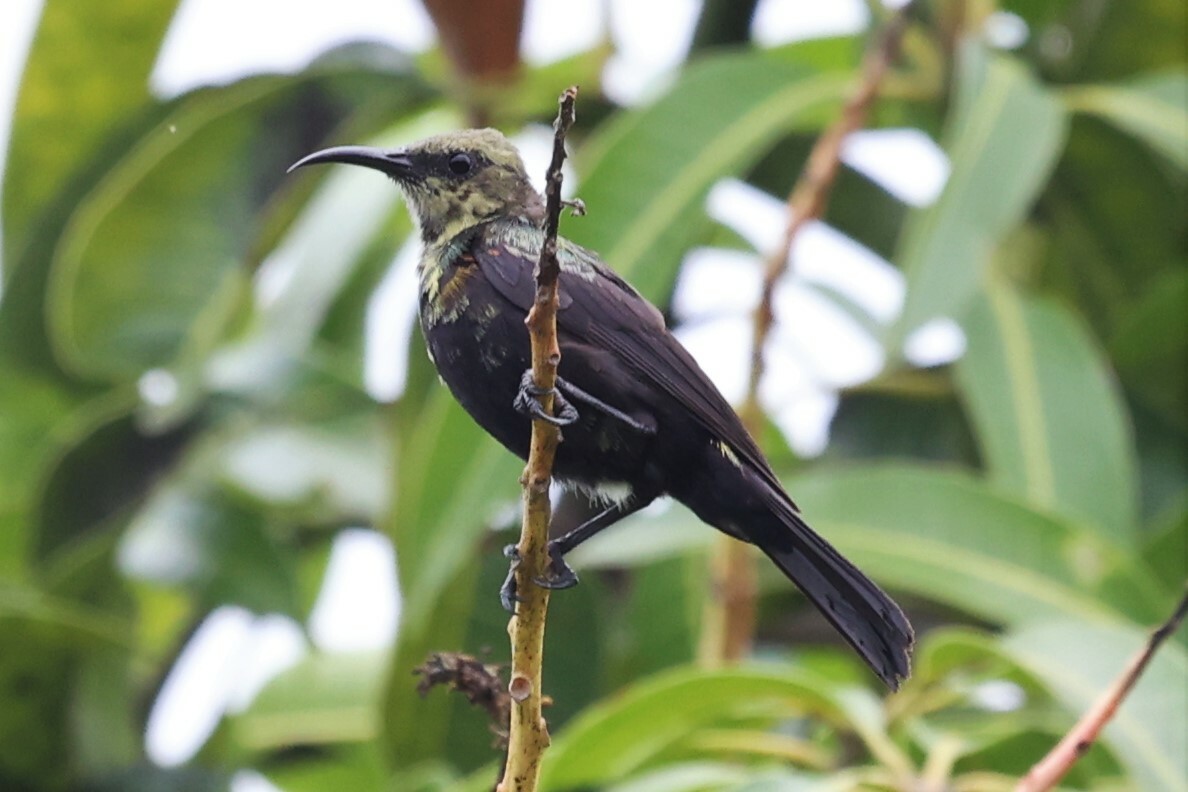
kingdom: Animalia
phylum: Chordata
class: Aves
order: Passeriformes
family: Nectariniidae
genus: Cinnyris
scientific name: Cinnyris cupreus
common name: Copper sunbird
